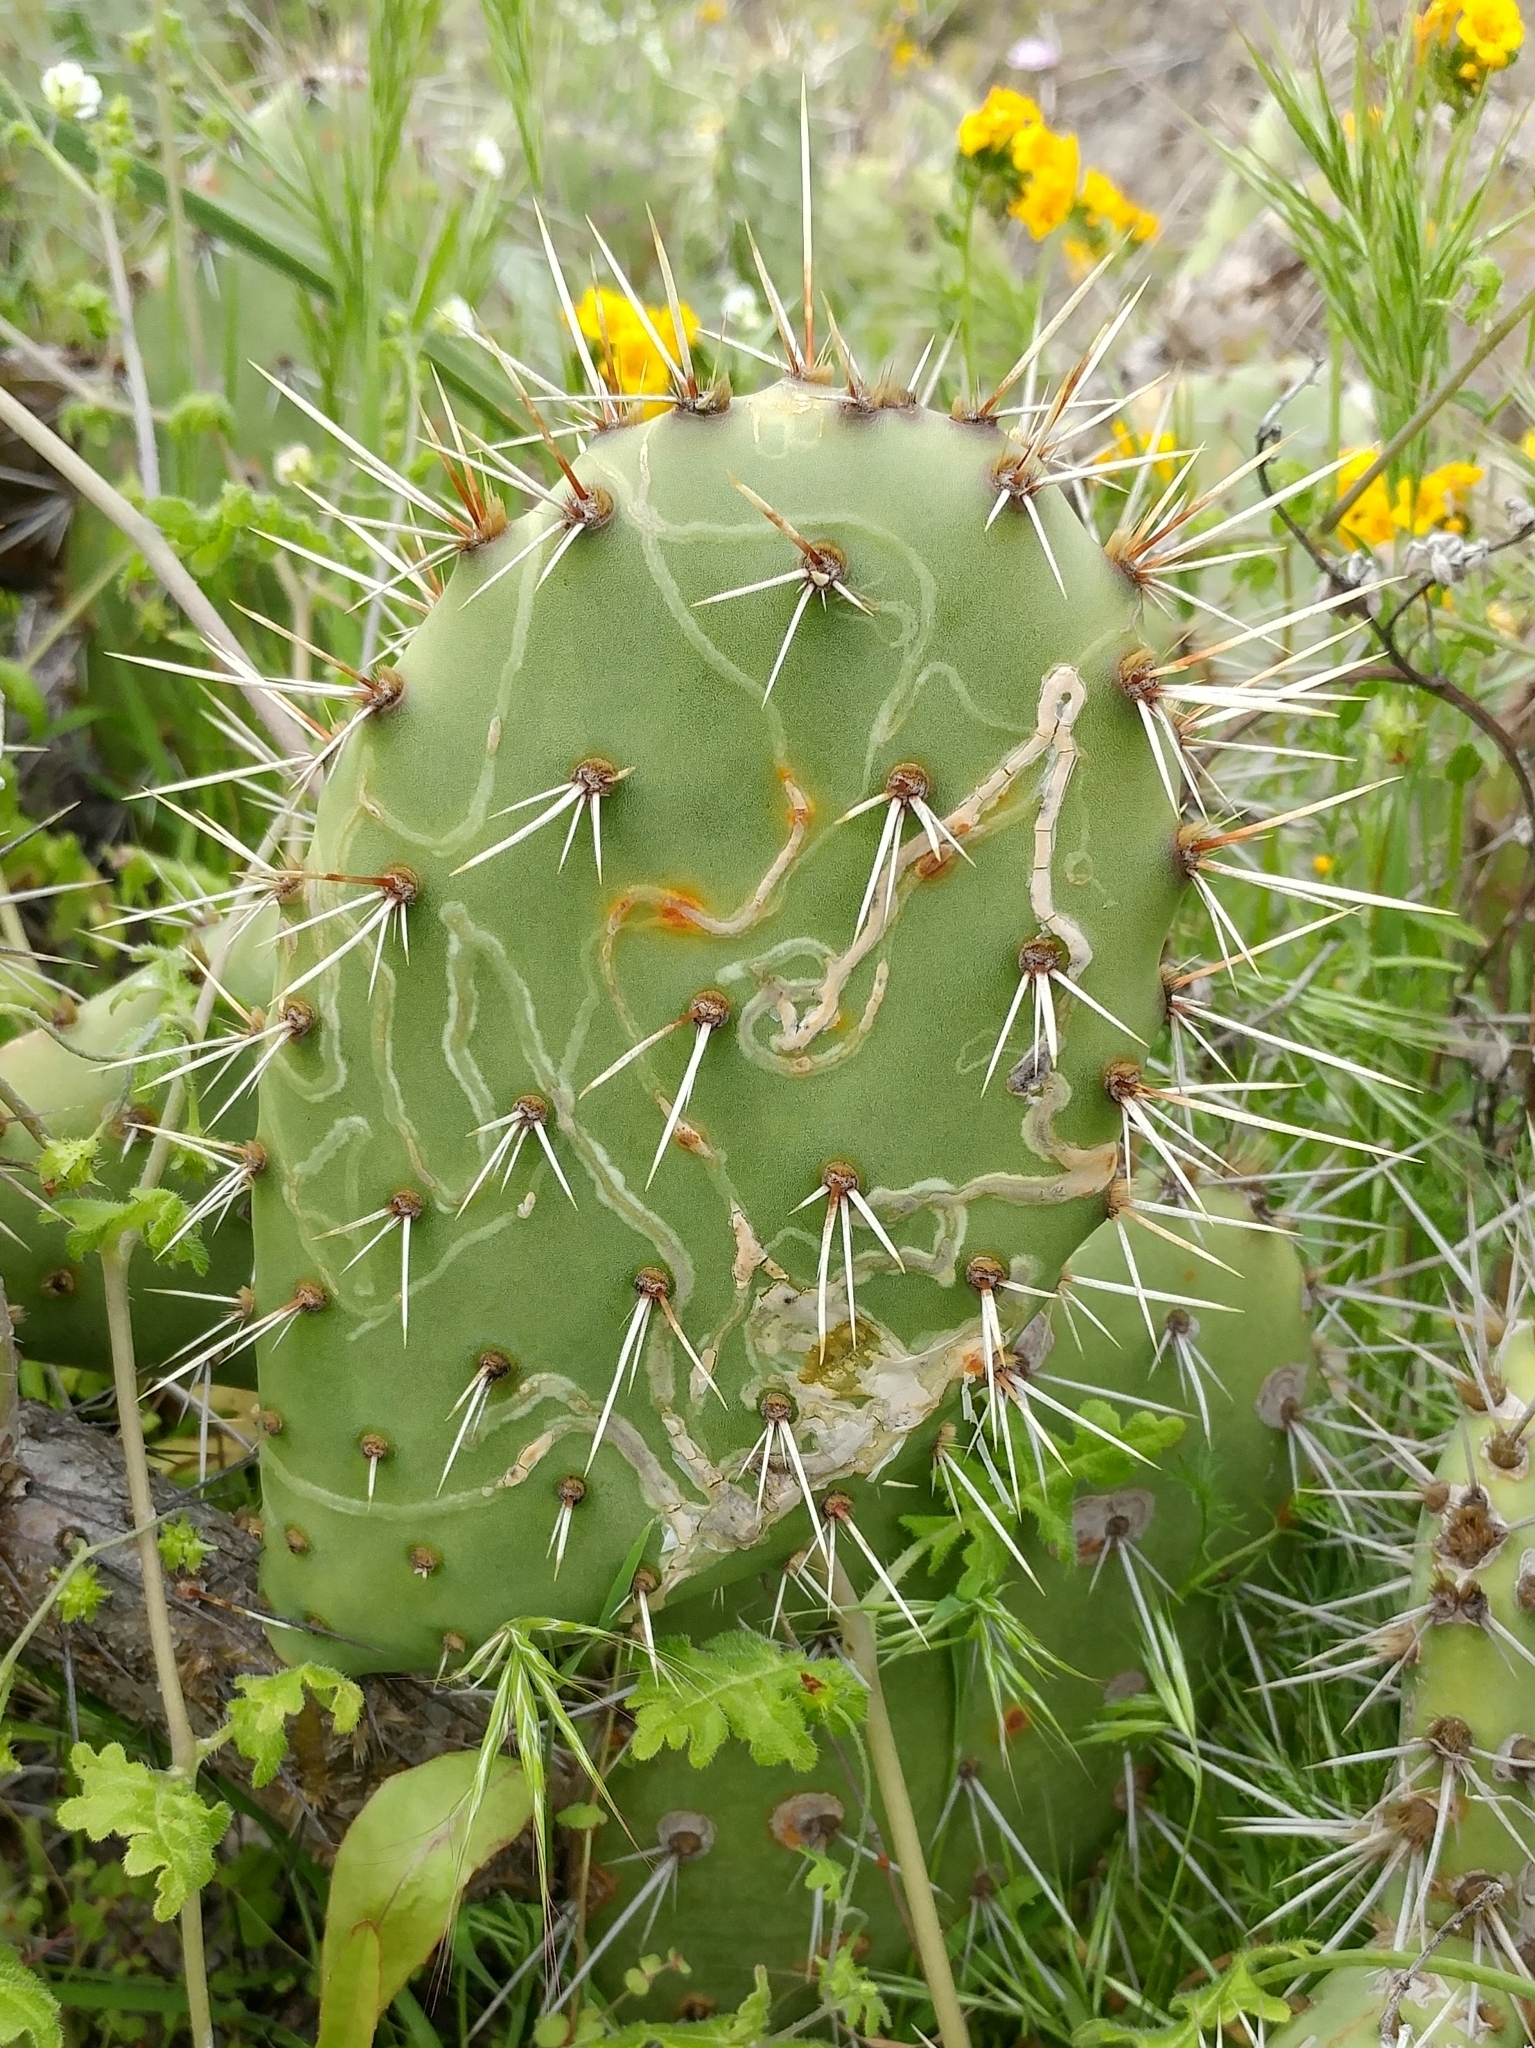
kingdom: Animalia
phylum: Arthropoda
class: Insecta
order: Lepidoptera
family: Gracillariidae
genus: Marmara
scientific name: Marmara opuntiella
